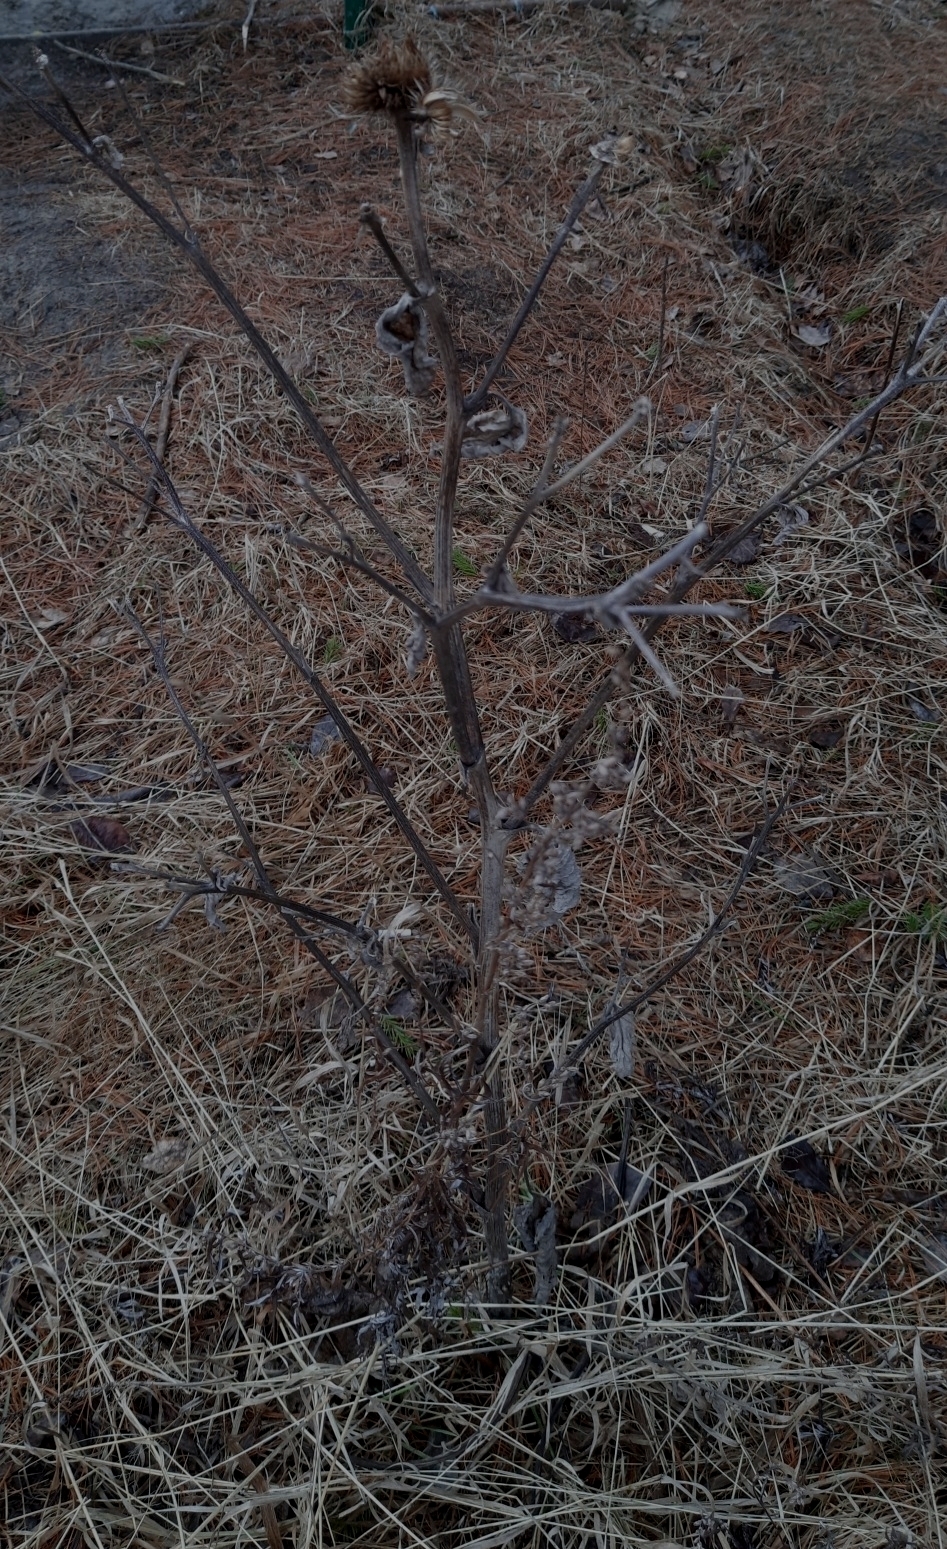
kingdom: Plantae
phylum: Tracheophyta
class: Magnoliopsida
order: Asterales
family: Asteraceae
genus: Arctium
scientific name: Arctium tomentosum
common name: Woolly burdock
